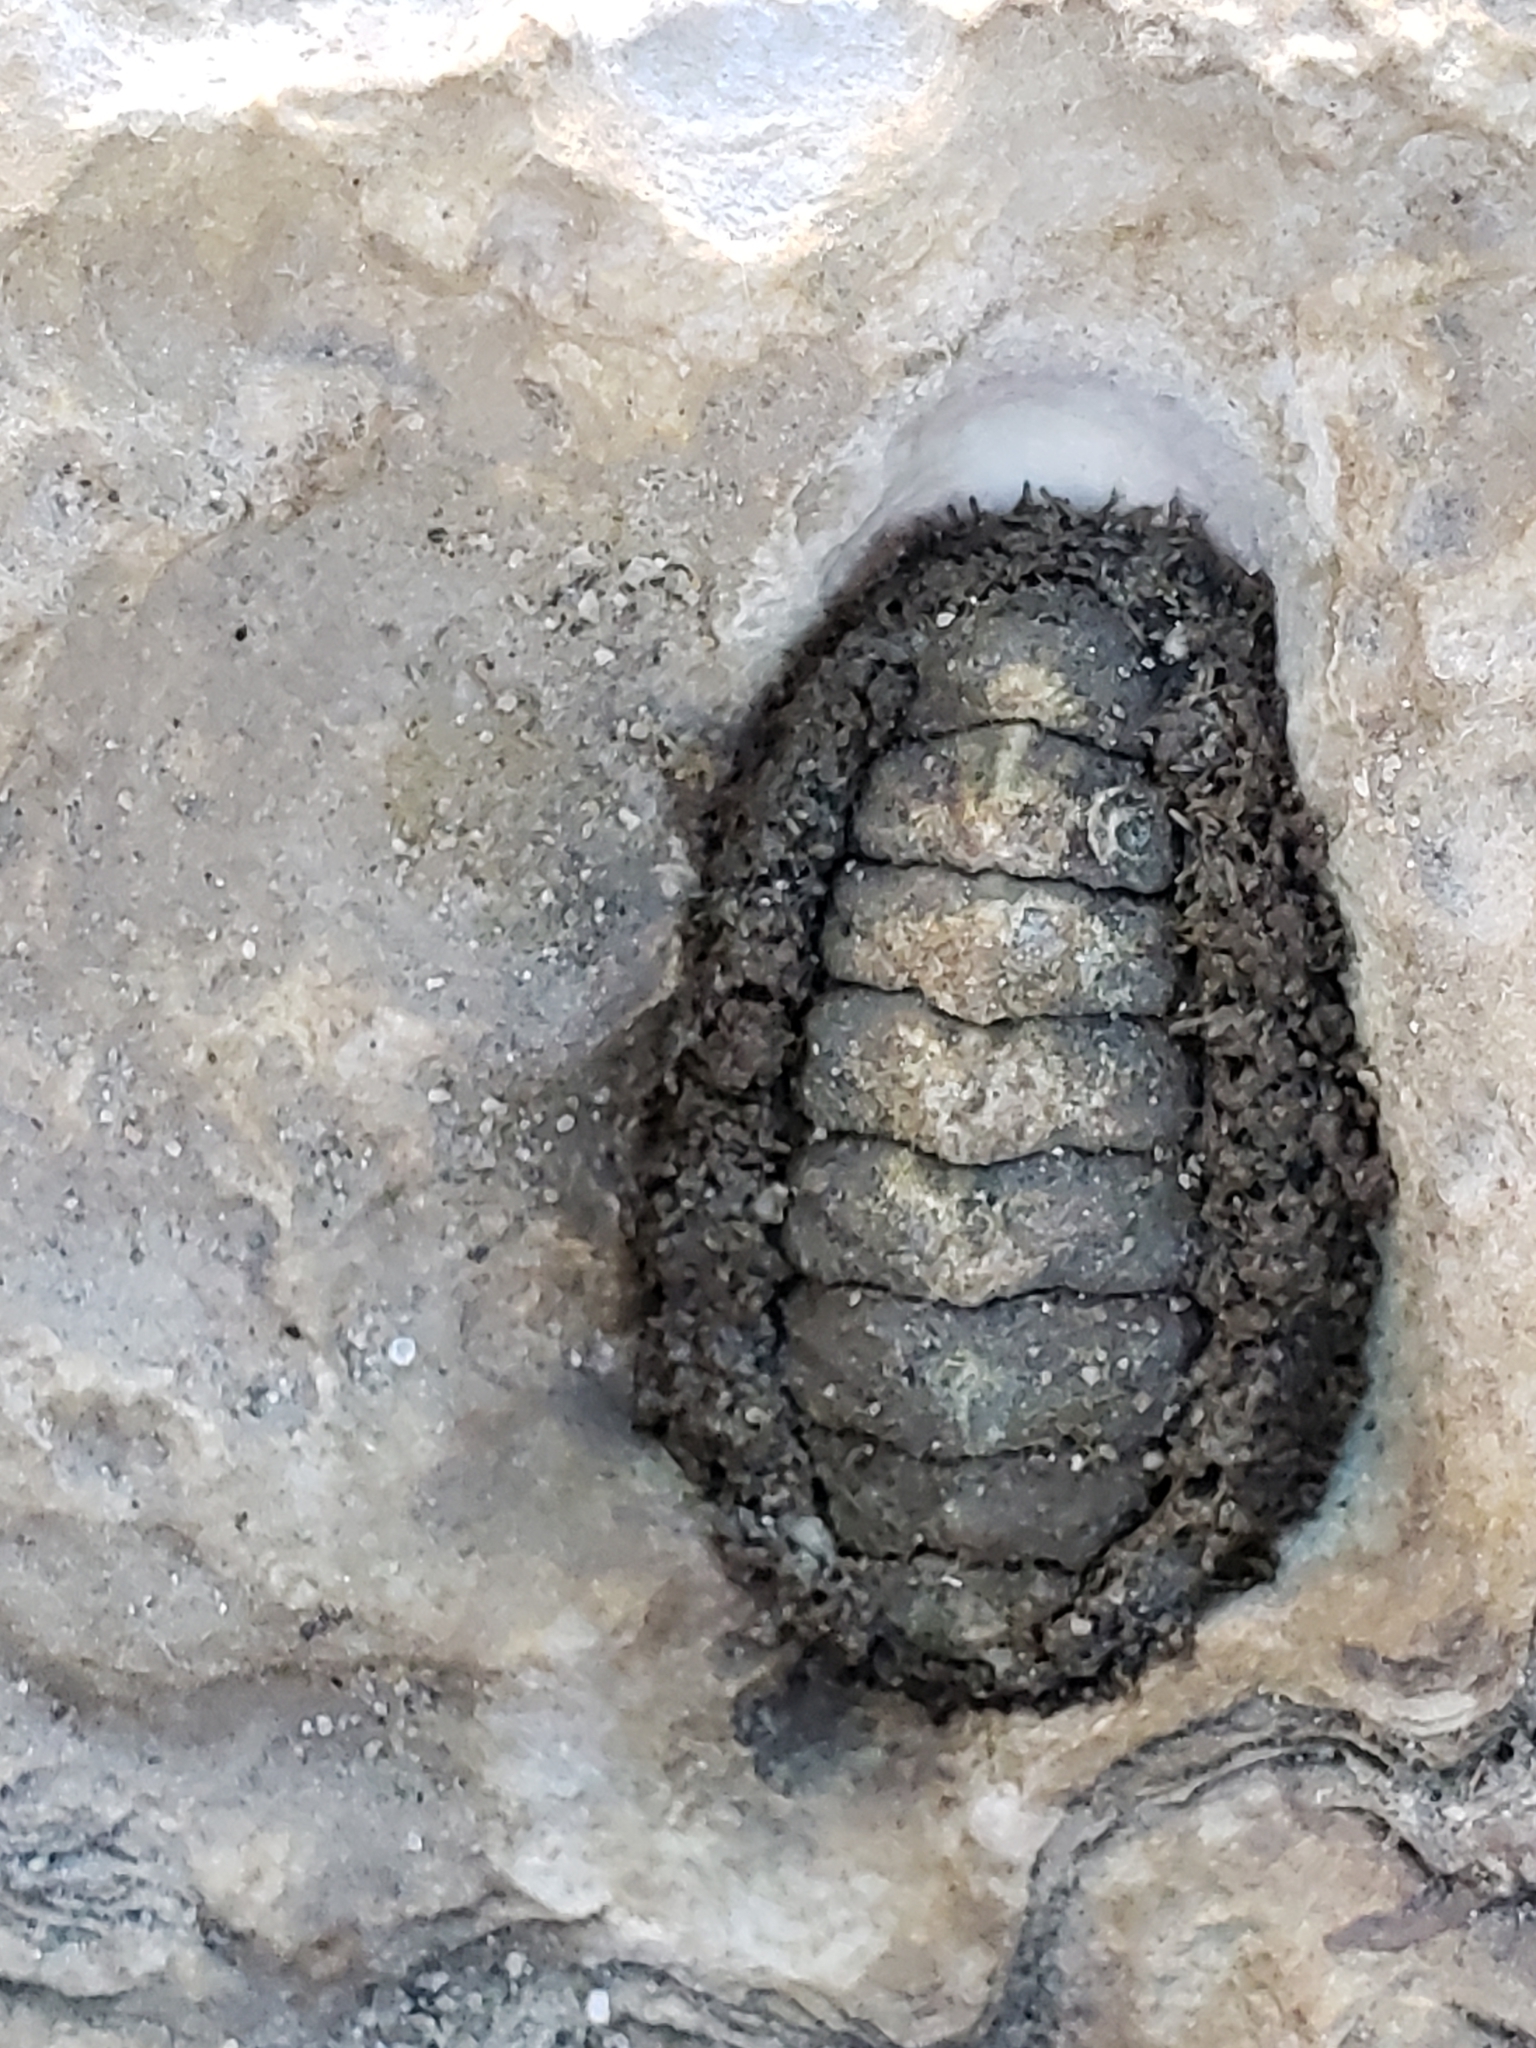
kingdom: Animalia
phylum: Mollusca
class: Polyplacophora
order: Chitonida
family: Mopaliidae
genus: Mopalia
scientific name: Mopalia muscosa
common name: Mossy chiton
